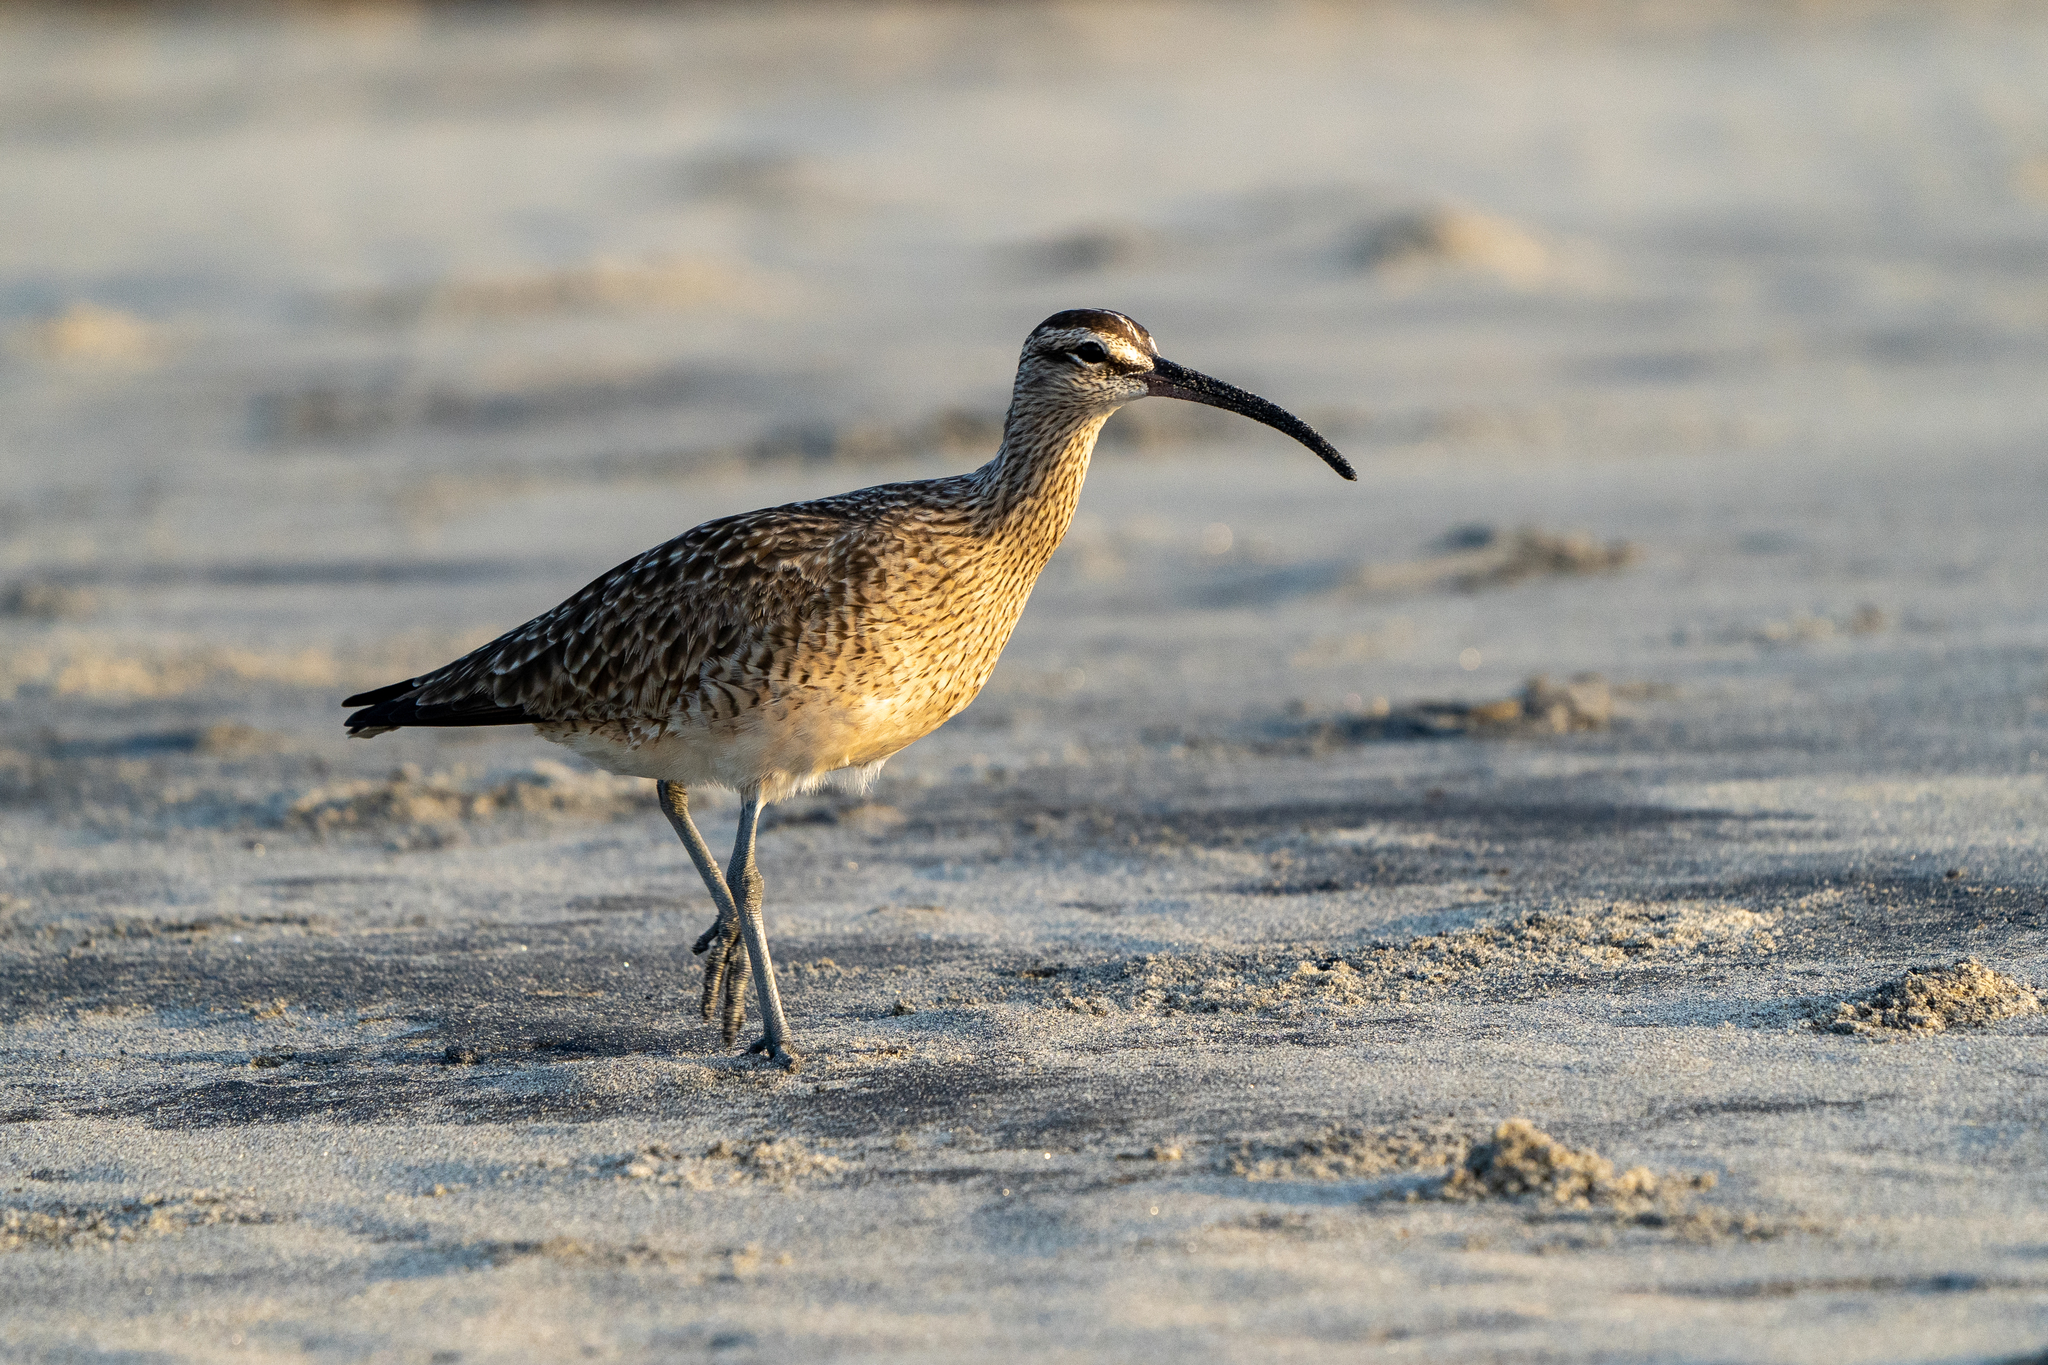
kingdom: Animalia
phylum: Chordata
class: Aves
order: Charadriiformes
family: Scolopacidae
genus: Numenius
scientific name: Numenius phaeopus
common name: Whimbrel
